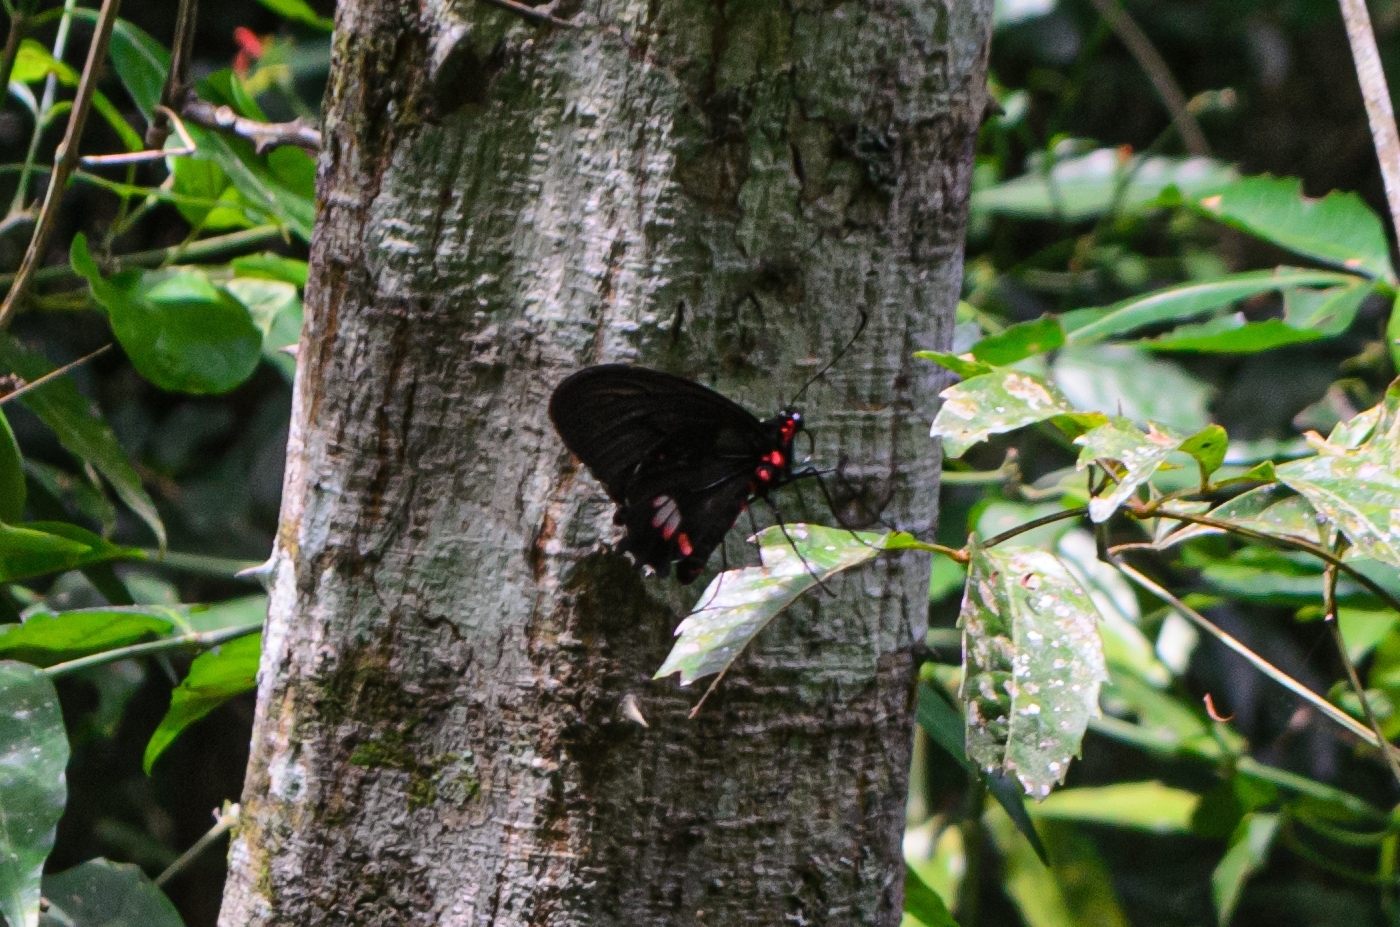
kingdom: Animalia
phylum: Arthropoda
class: Insecta
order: Lepidoptera
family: Papilionidae
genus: Parides
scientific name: Parides anchises
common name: Cattle heart
